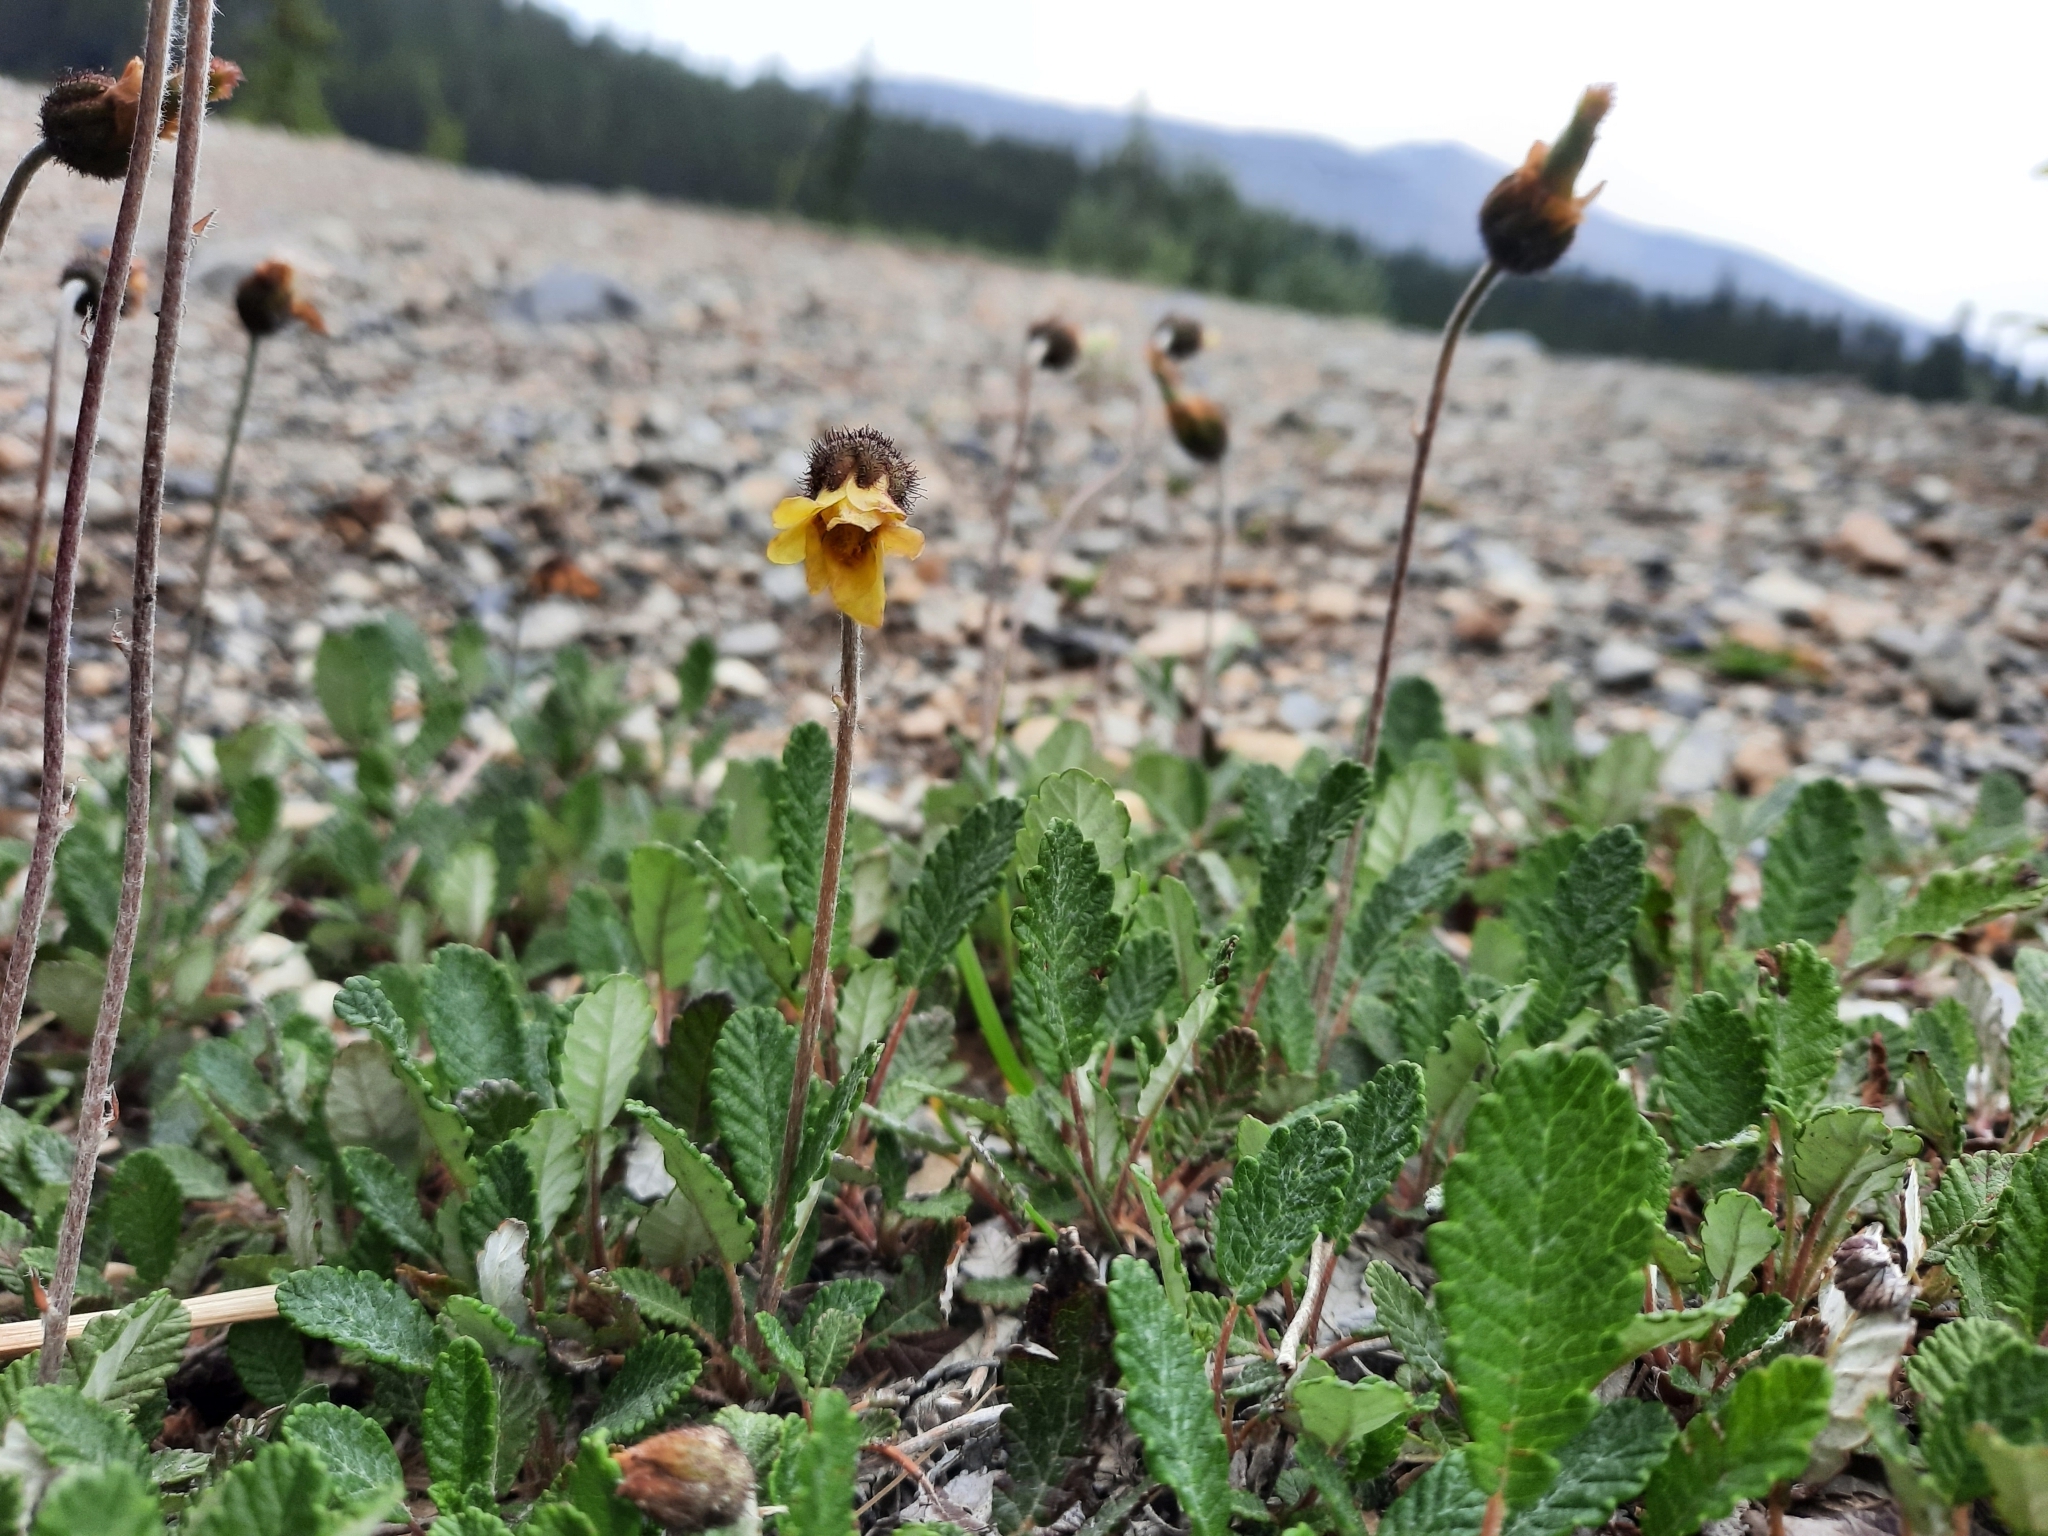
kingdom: Plantae
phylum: Tracheophyta
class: Magnoliopsida
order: Rosales
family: Rosaceae
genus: Dryas
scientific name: Dryas drummondii
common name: Drummond's dryad
